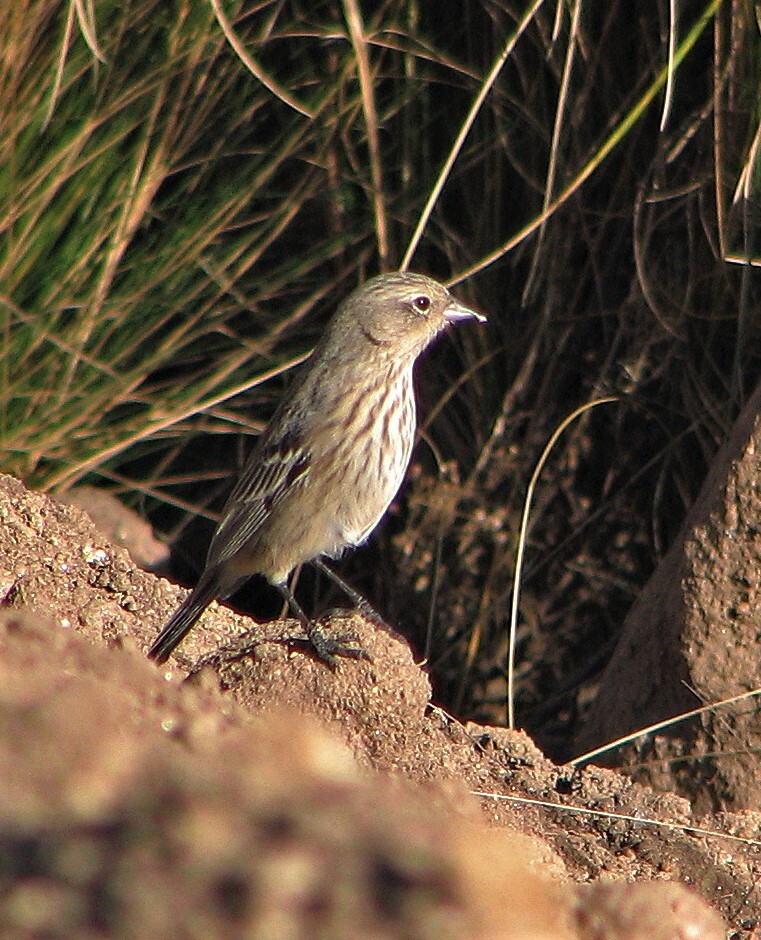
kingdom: Animalia
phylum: Chordata
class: Aves
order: Passeriformes
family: Thraupidae
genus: Geospizopsis
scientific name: Geospizopsis plebejus
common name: Ash-breasted sierra-finch
